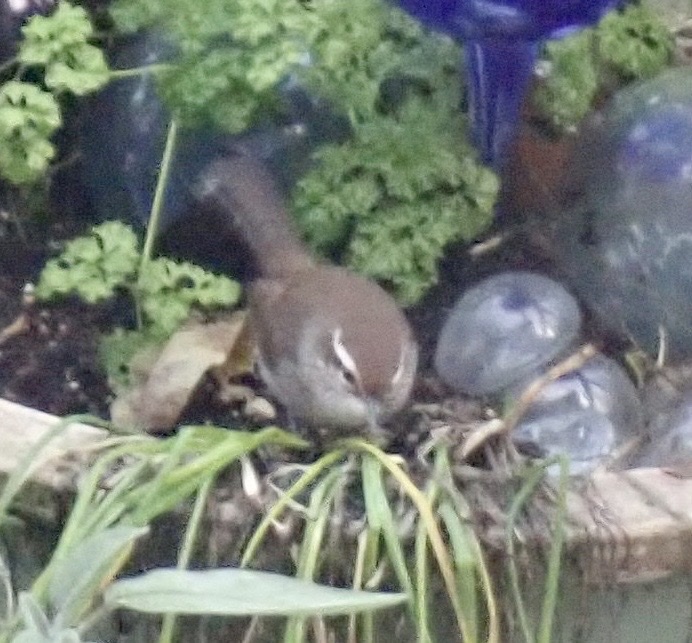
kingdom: Animalia
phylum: Chordata
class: Aves
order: Passeriformes
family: Troglodytidae
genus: Thryomanes
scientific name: Thryomanes bewickii
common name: Bewick's wren
